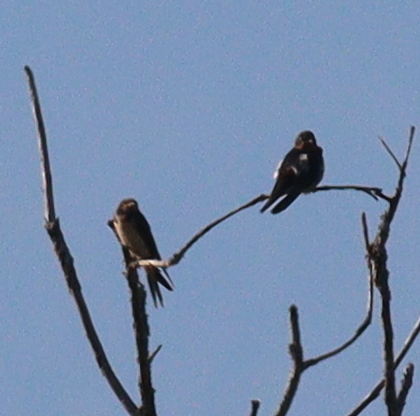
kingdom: Animalia
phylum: Chordata
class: Aves
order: Passeriformes
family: Hirundinidae
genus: Hirundo
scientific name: Hirundo rustica
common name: Barn swallow
